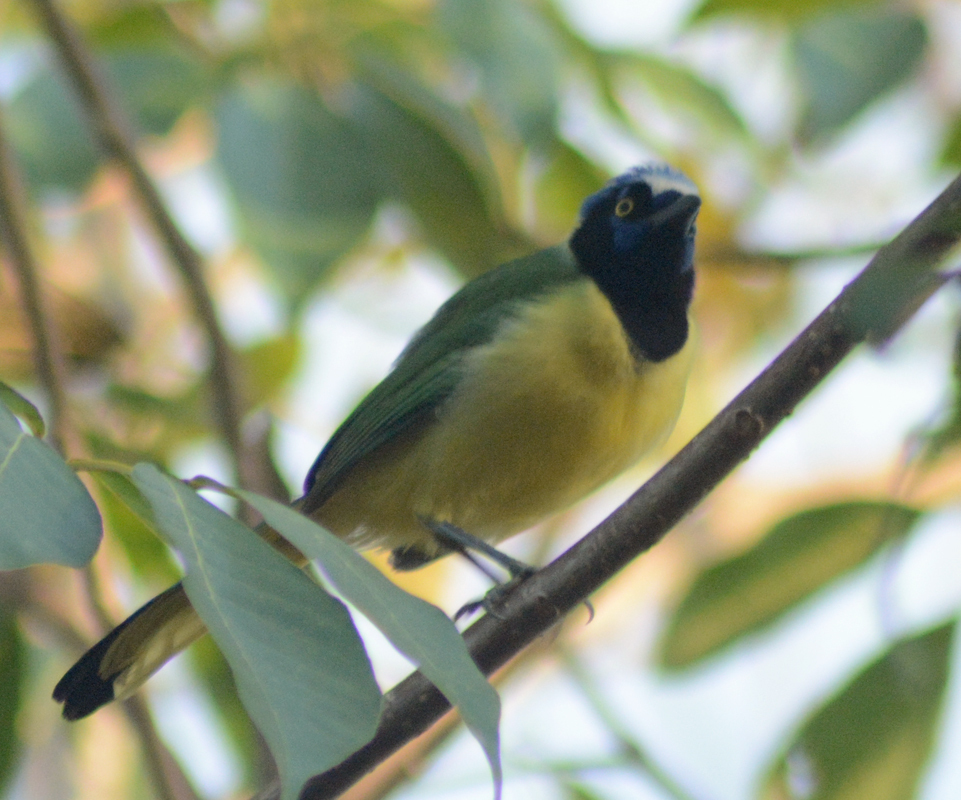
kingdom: Animalia
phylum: Chordata
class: Aves
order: Passeriformes
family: Corvidae
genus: Cyanocorax
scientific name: Cyanocorax yncas
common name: Green jay
